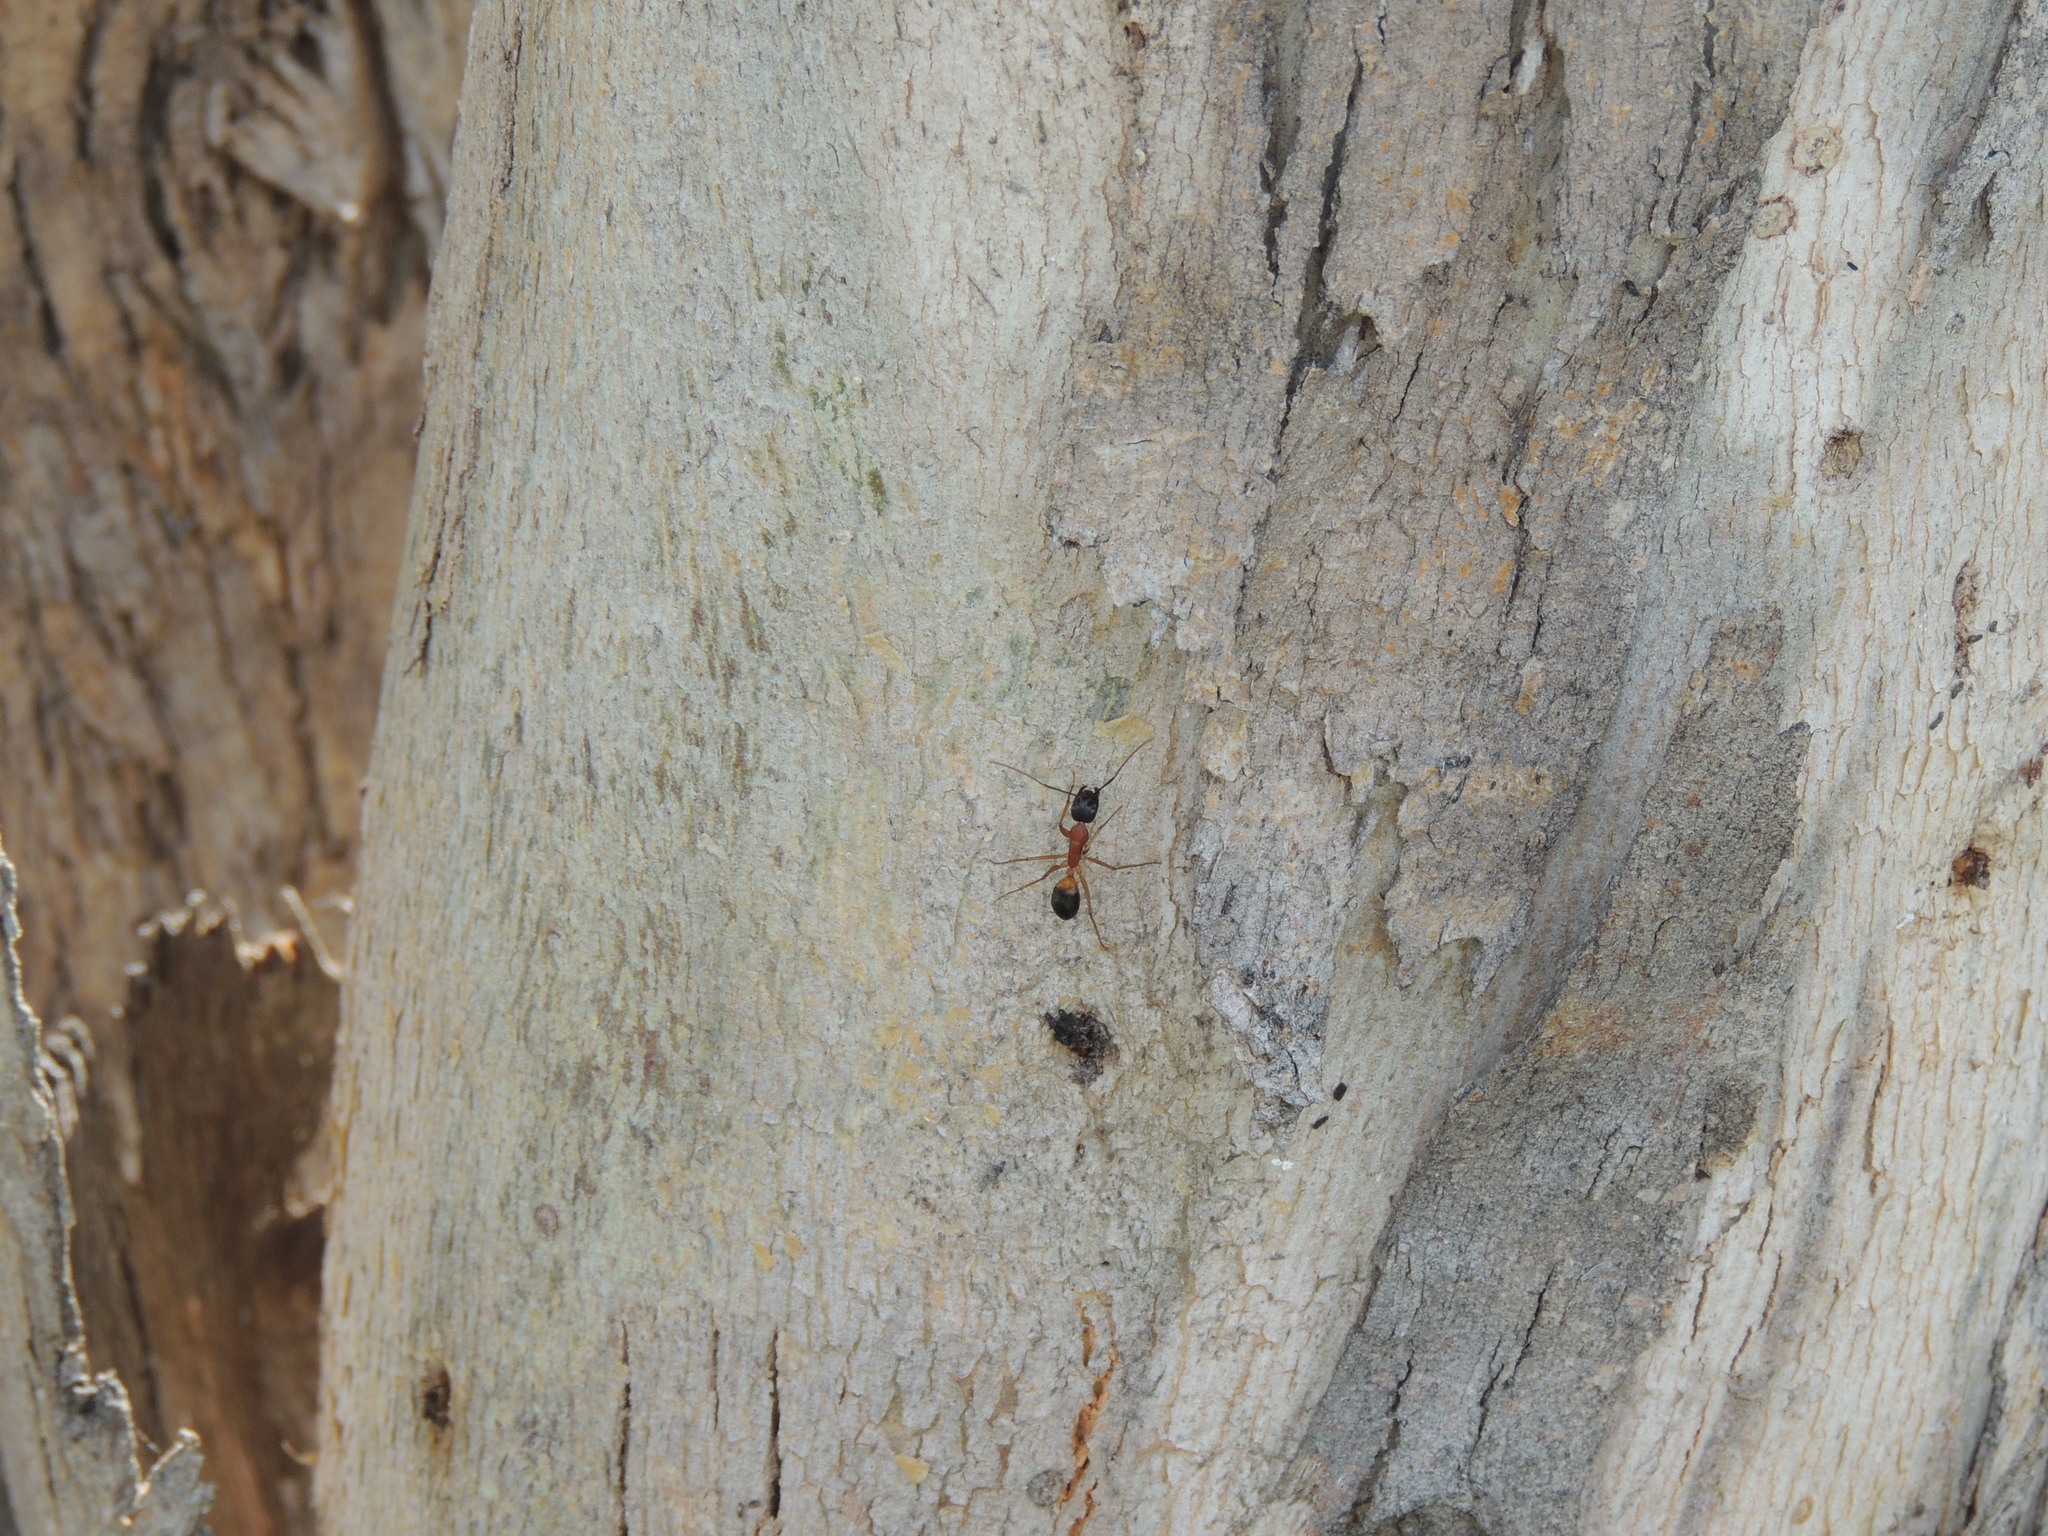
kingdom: Animalia
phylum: Arthropoda
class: Insecta
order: Hymenoptera
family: Formicidae
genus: Camponotus
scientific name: Camponotus consobrinus
